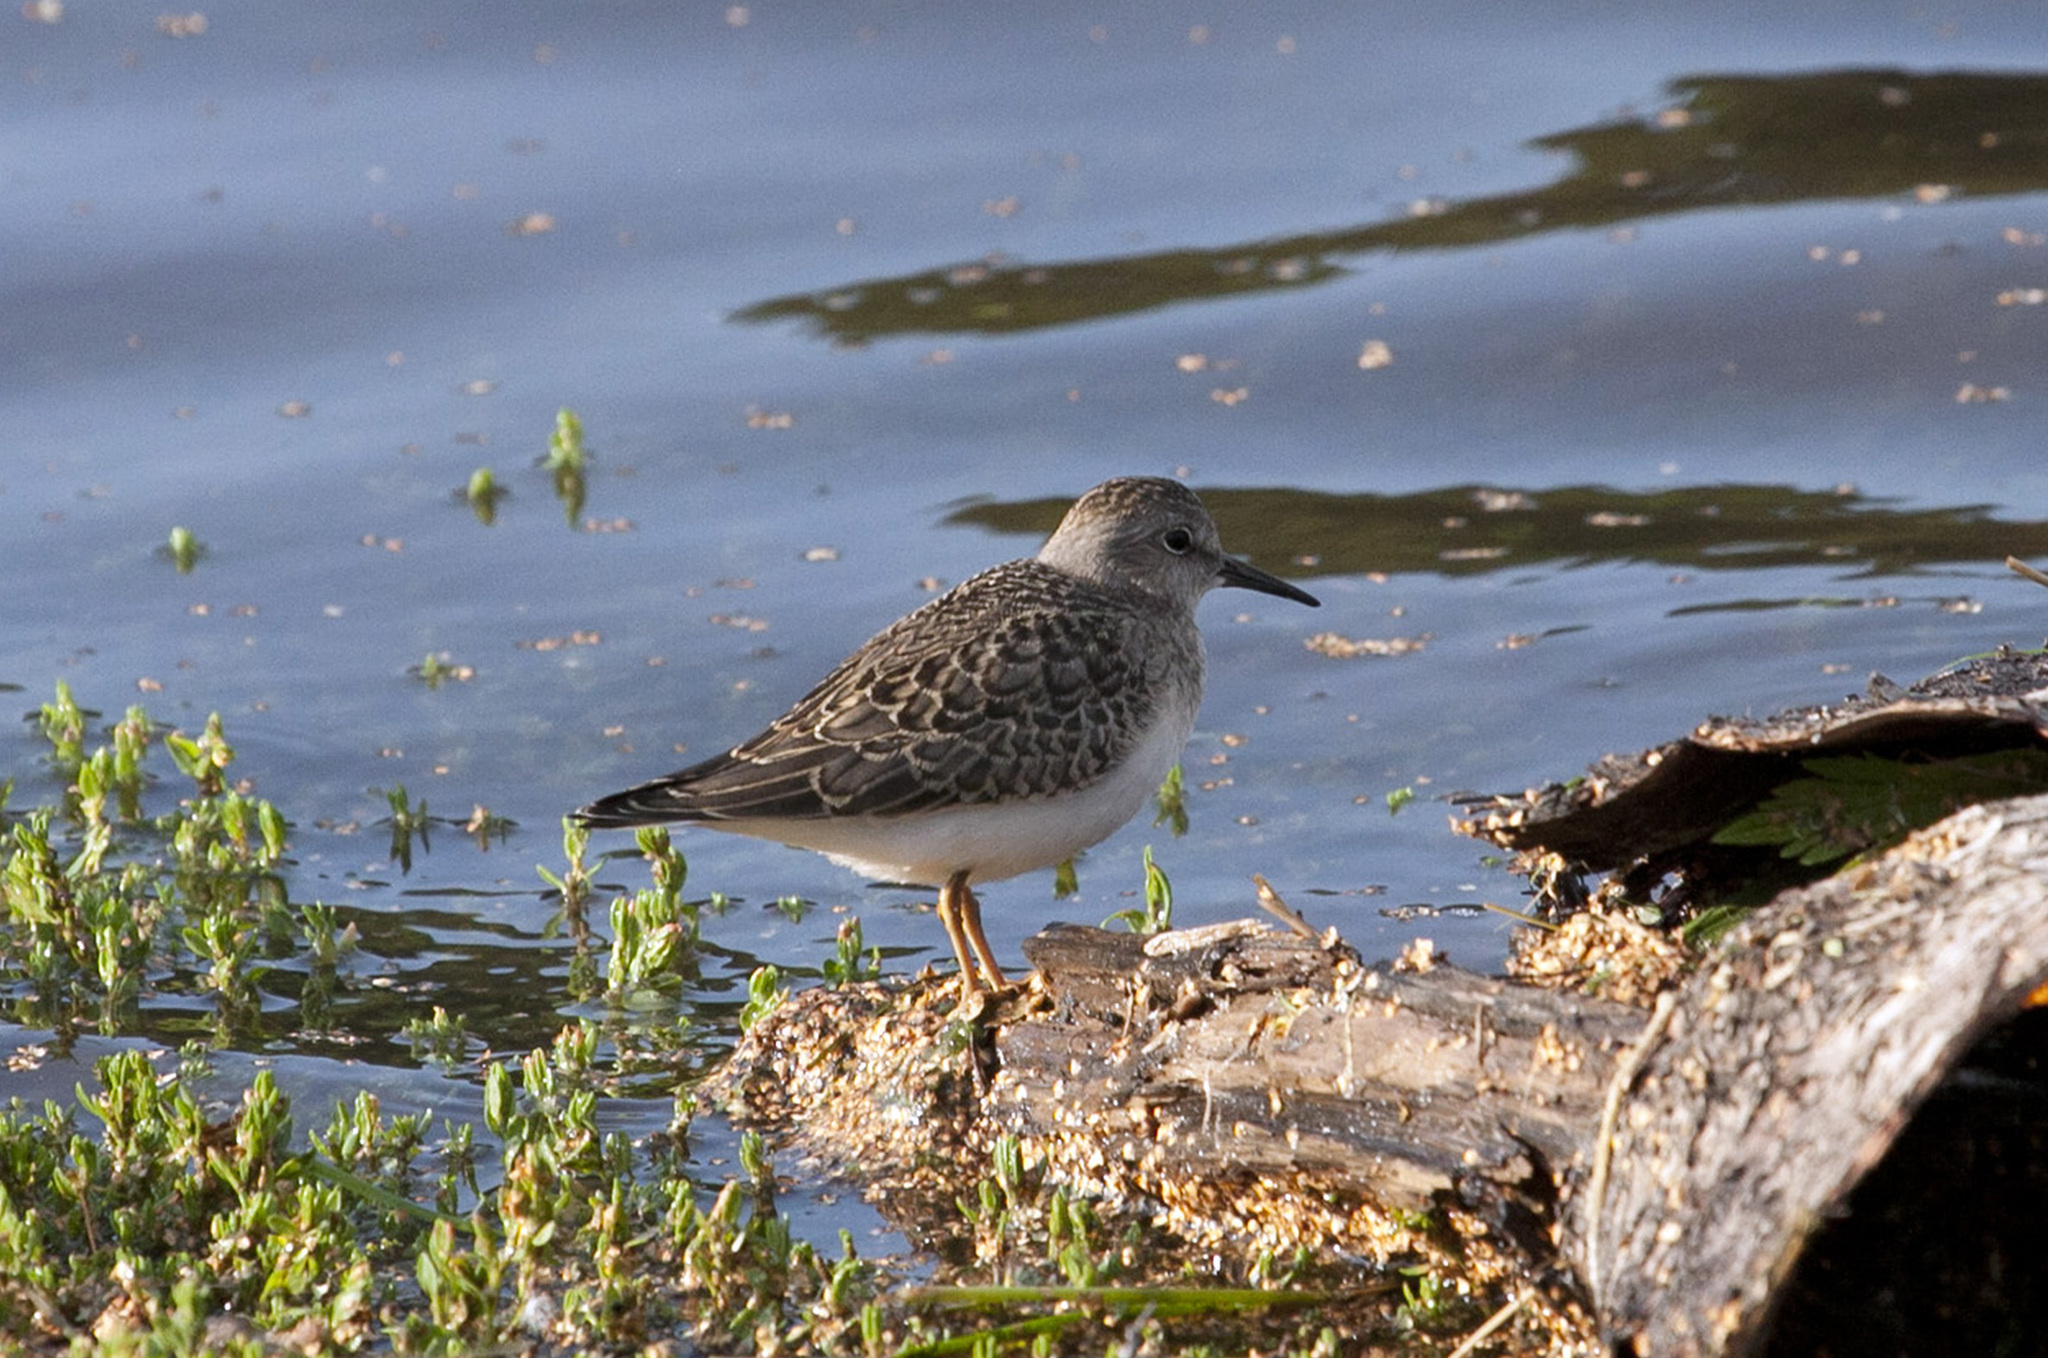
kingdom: Animalia
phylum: Chordata
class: Aves
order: Charadriiformes
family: Scolopacidae
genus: Calidris
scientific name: Calidris temminckii
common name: Temminck's stint
